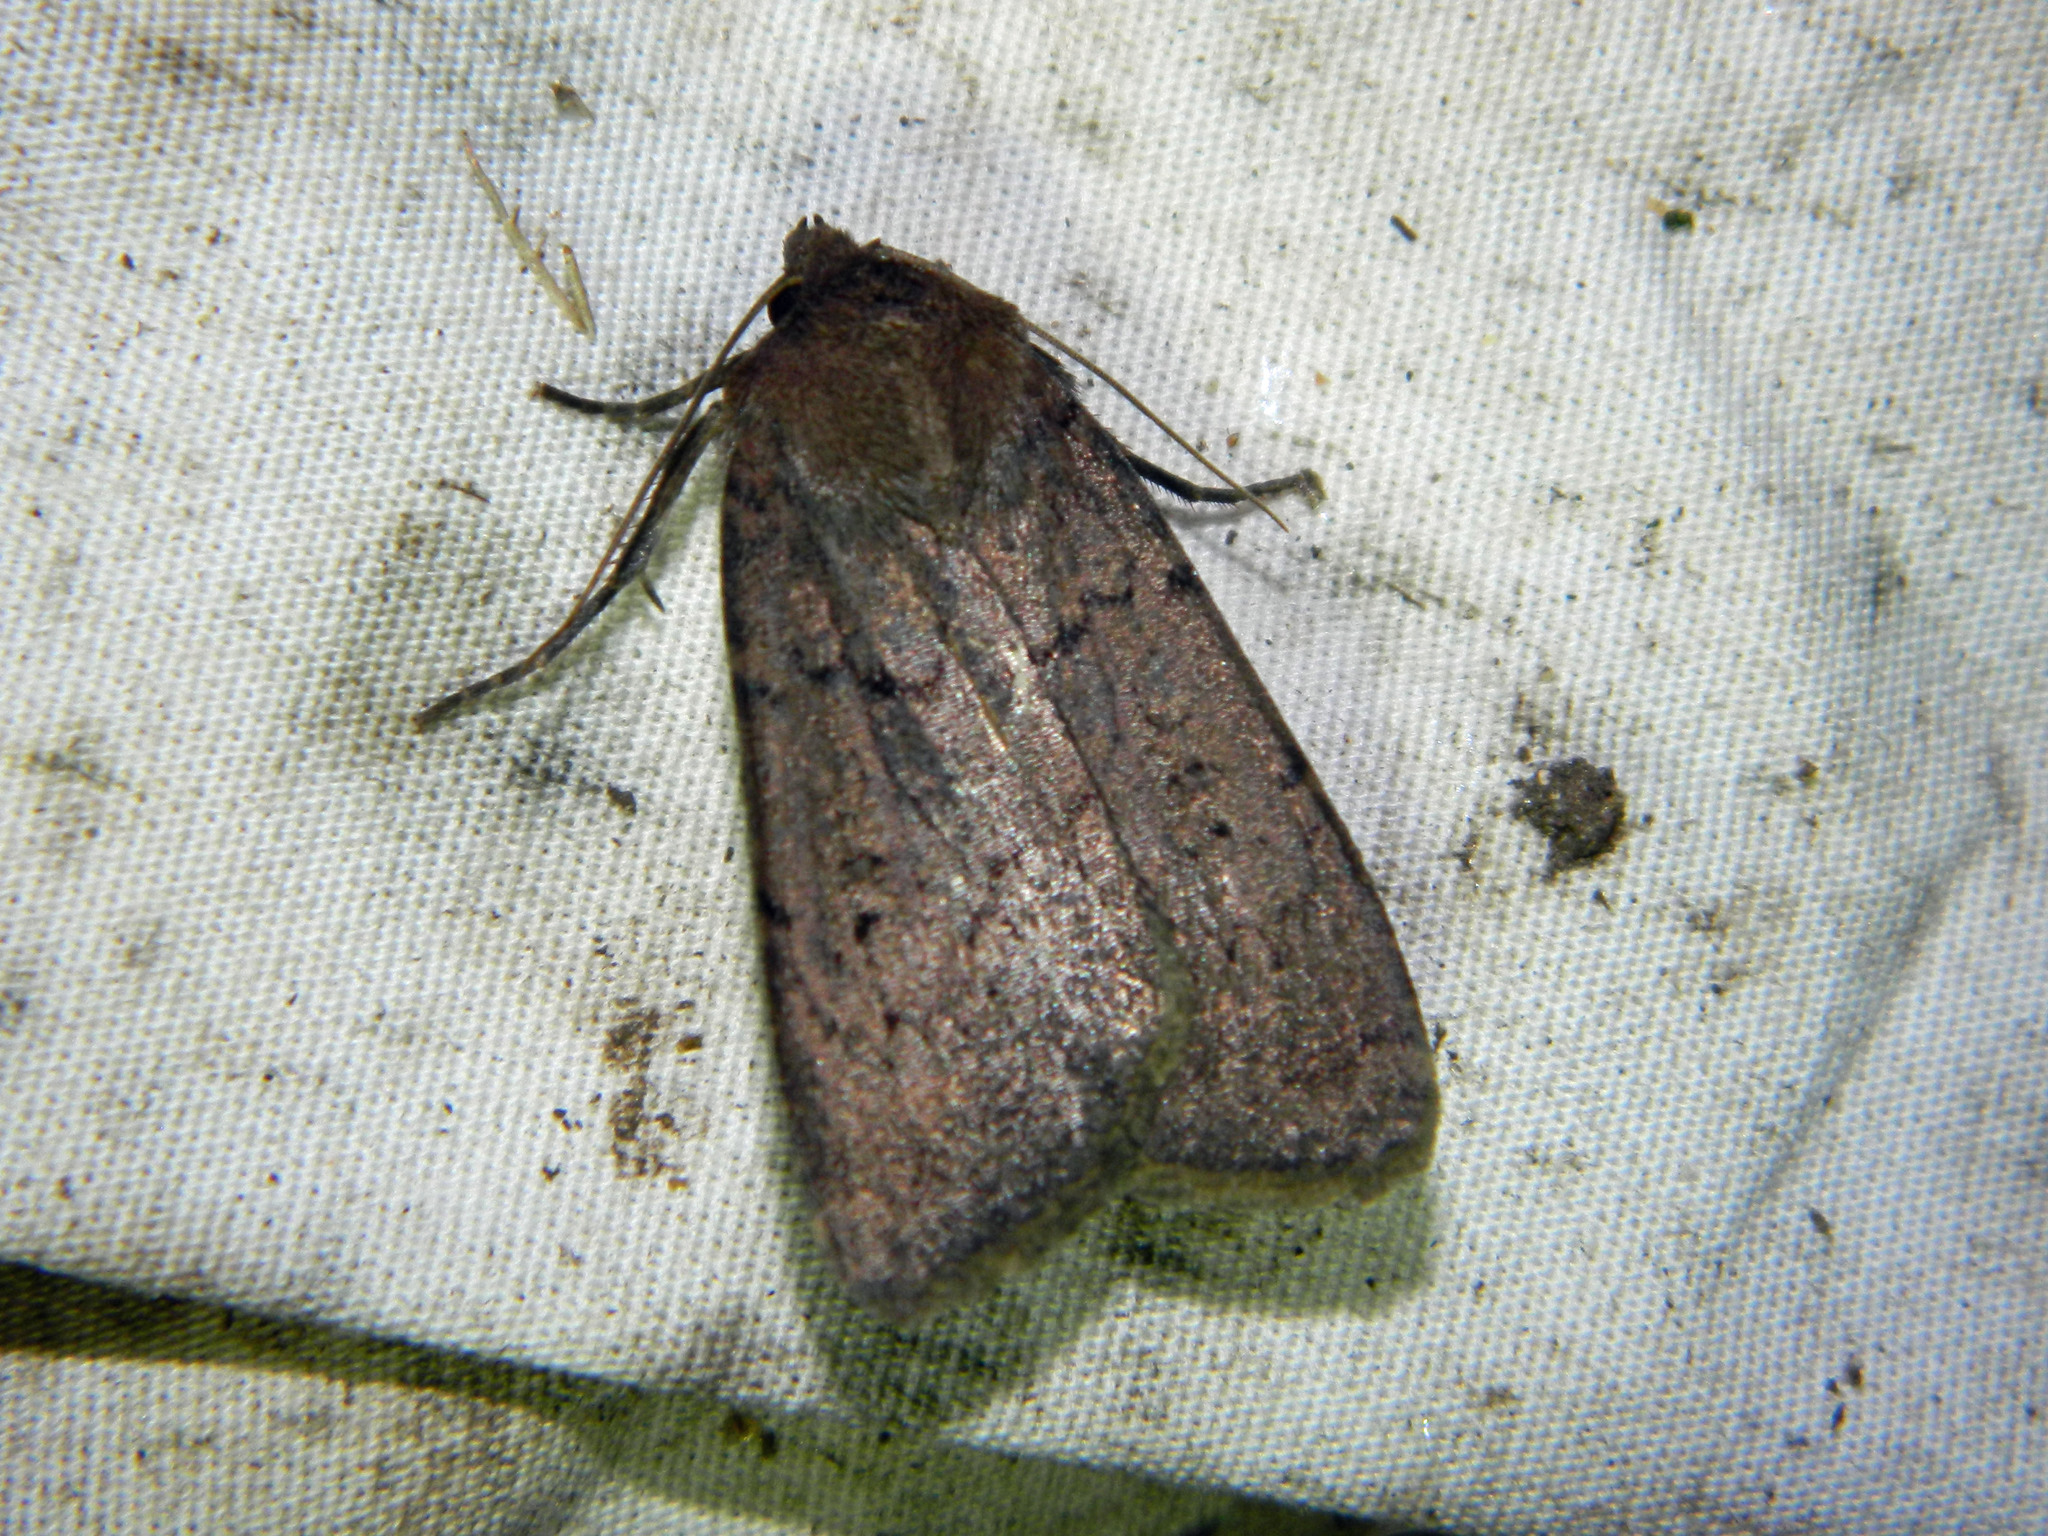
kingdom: Animalia
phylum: Arthropoda
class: Insecta
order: Lepidoptera
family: Noctuidae
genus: Graphiphora
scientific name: Graphiphora augur
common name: Double dart
